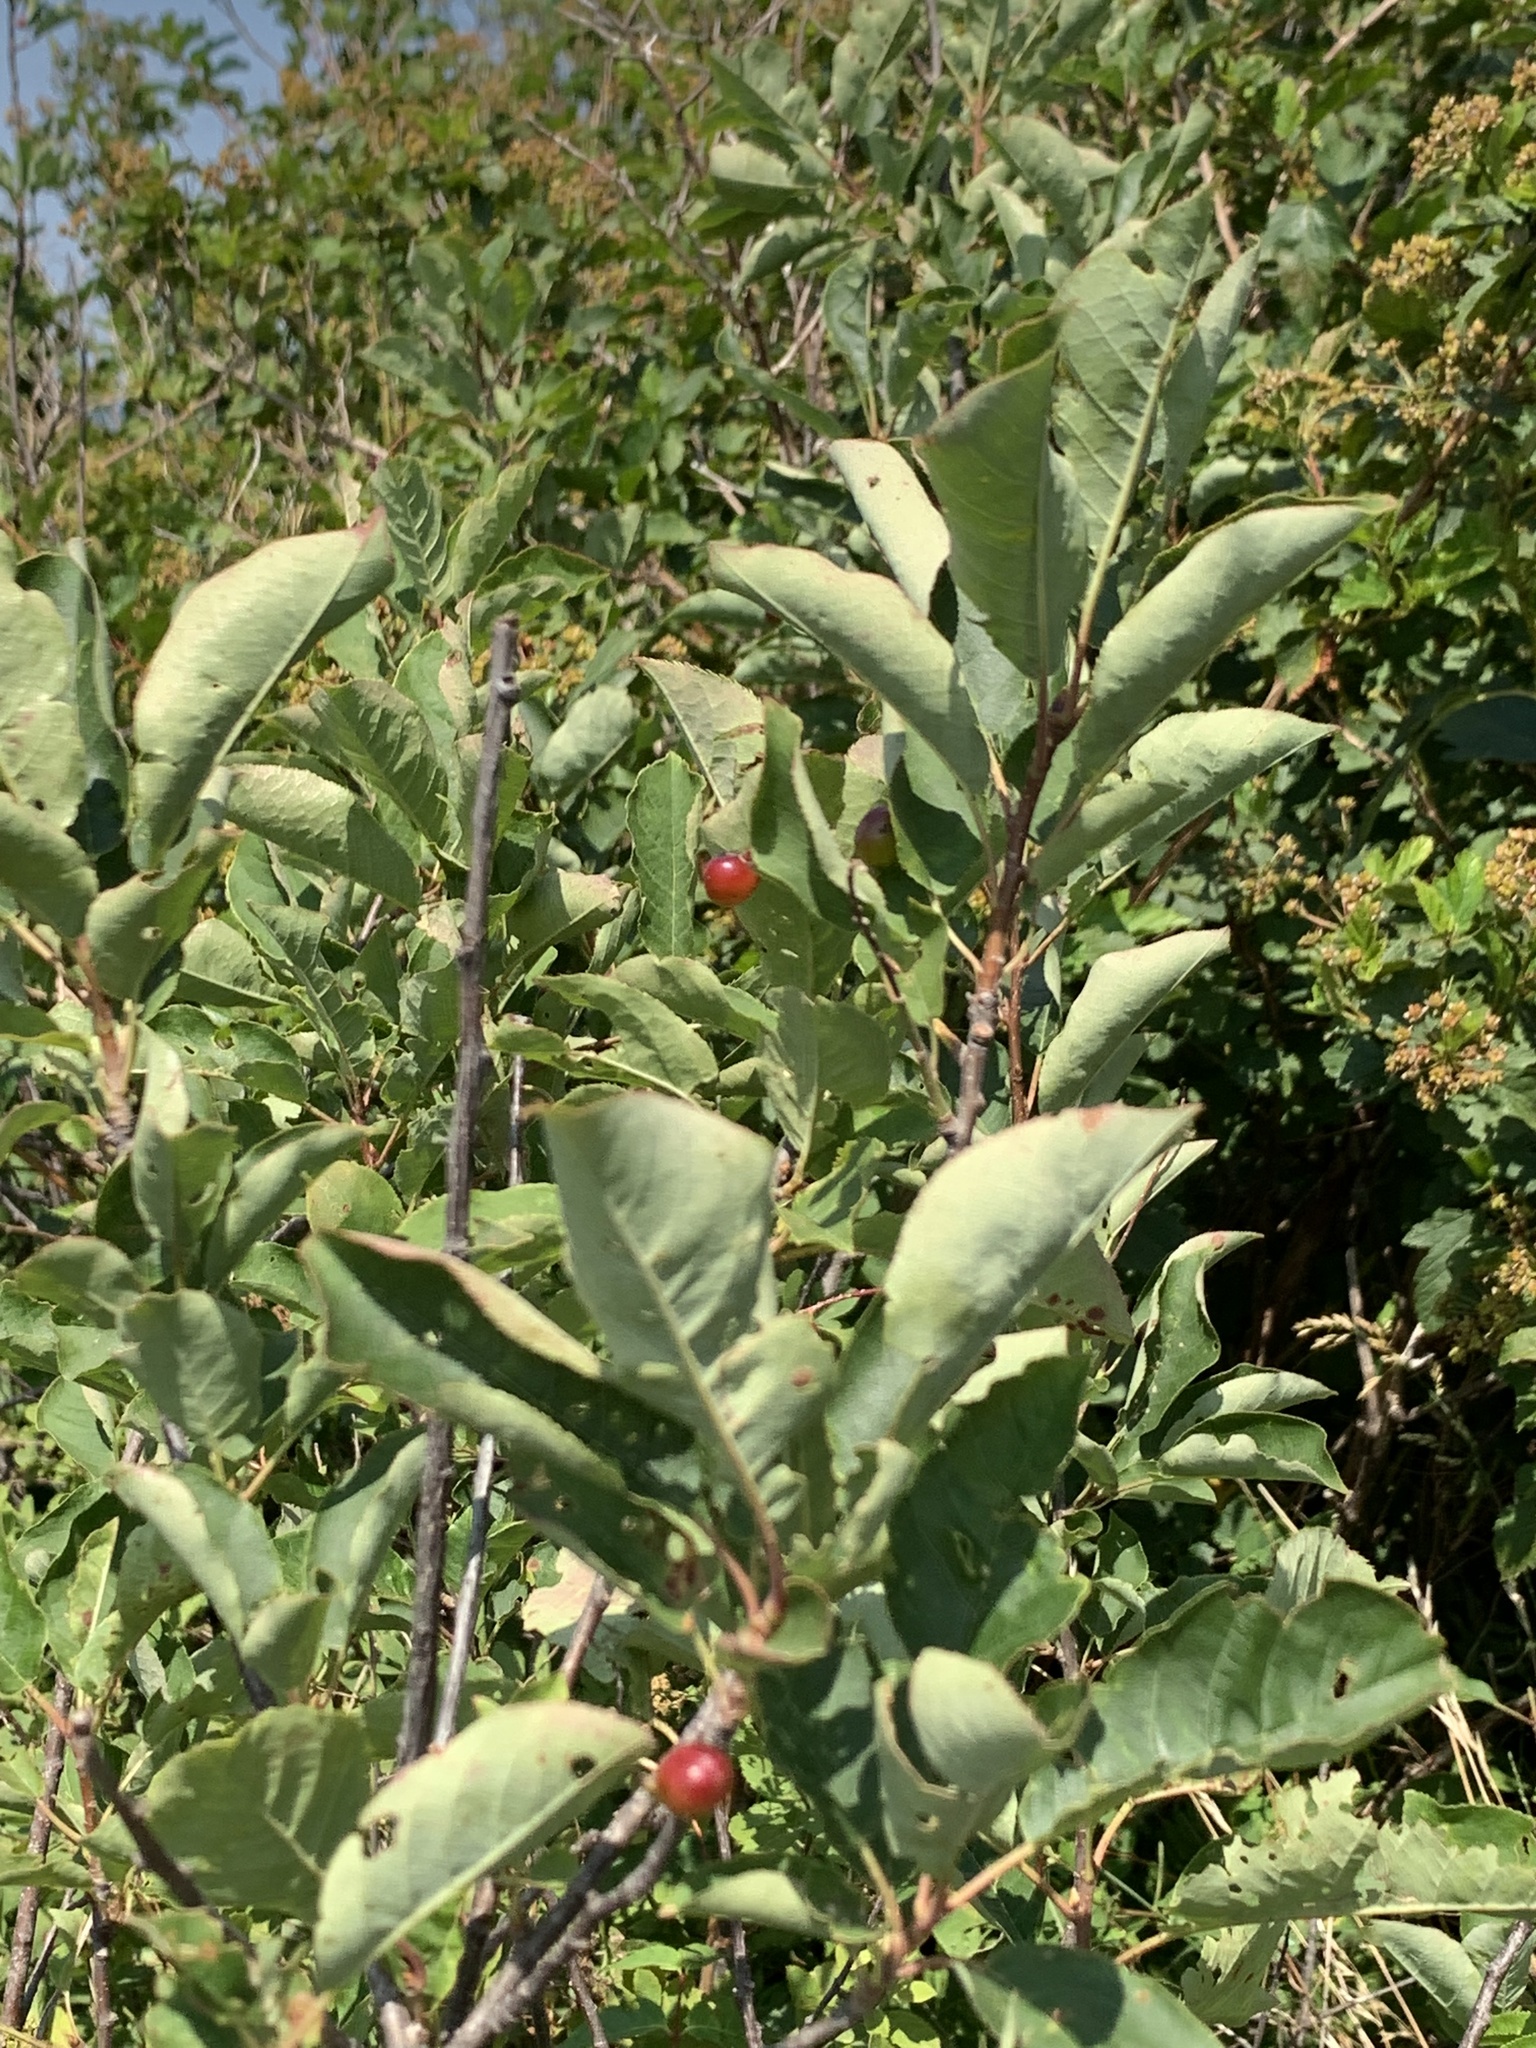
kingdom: Plantae
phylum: Tracheophyta
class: Magnoliopsida
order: Rosales
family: Rosaceae
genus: Prunus
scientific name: Prunus virginiana
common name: Chokecherry
